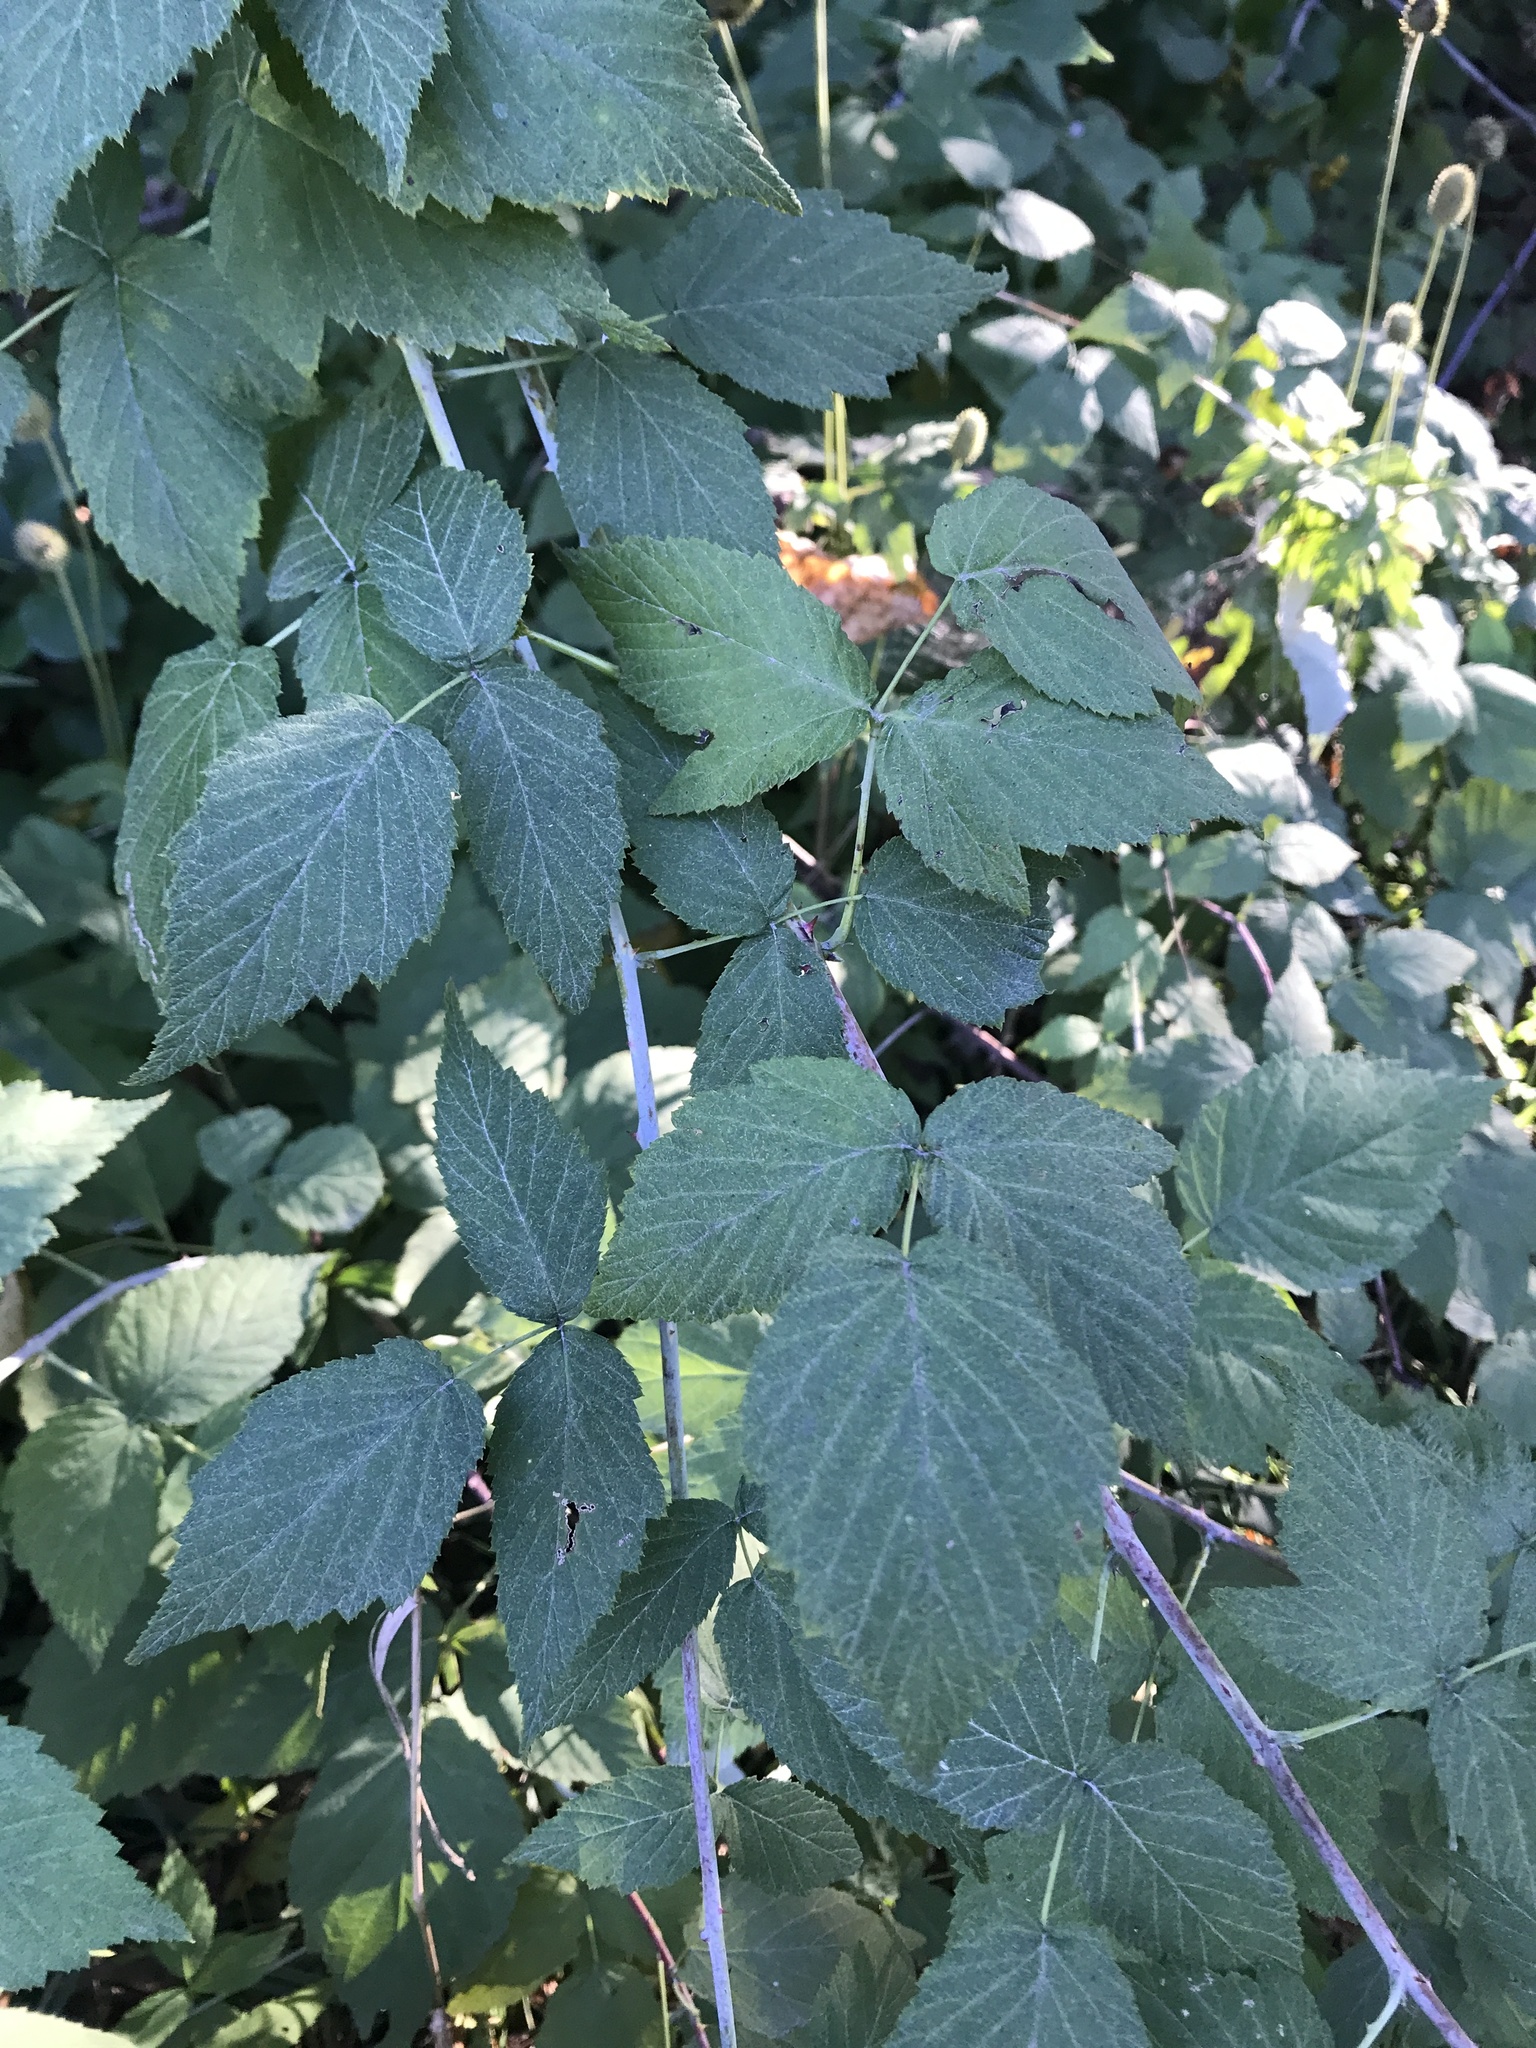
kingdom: Plantae
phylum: Tracheophyta
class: Magnoliopsida
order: Rosales
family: Rosaceae
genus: Rubus
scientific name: Rubus occidentalis
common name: Black raspberry
